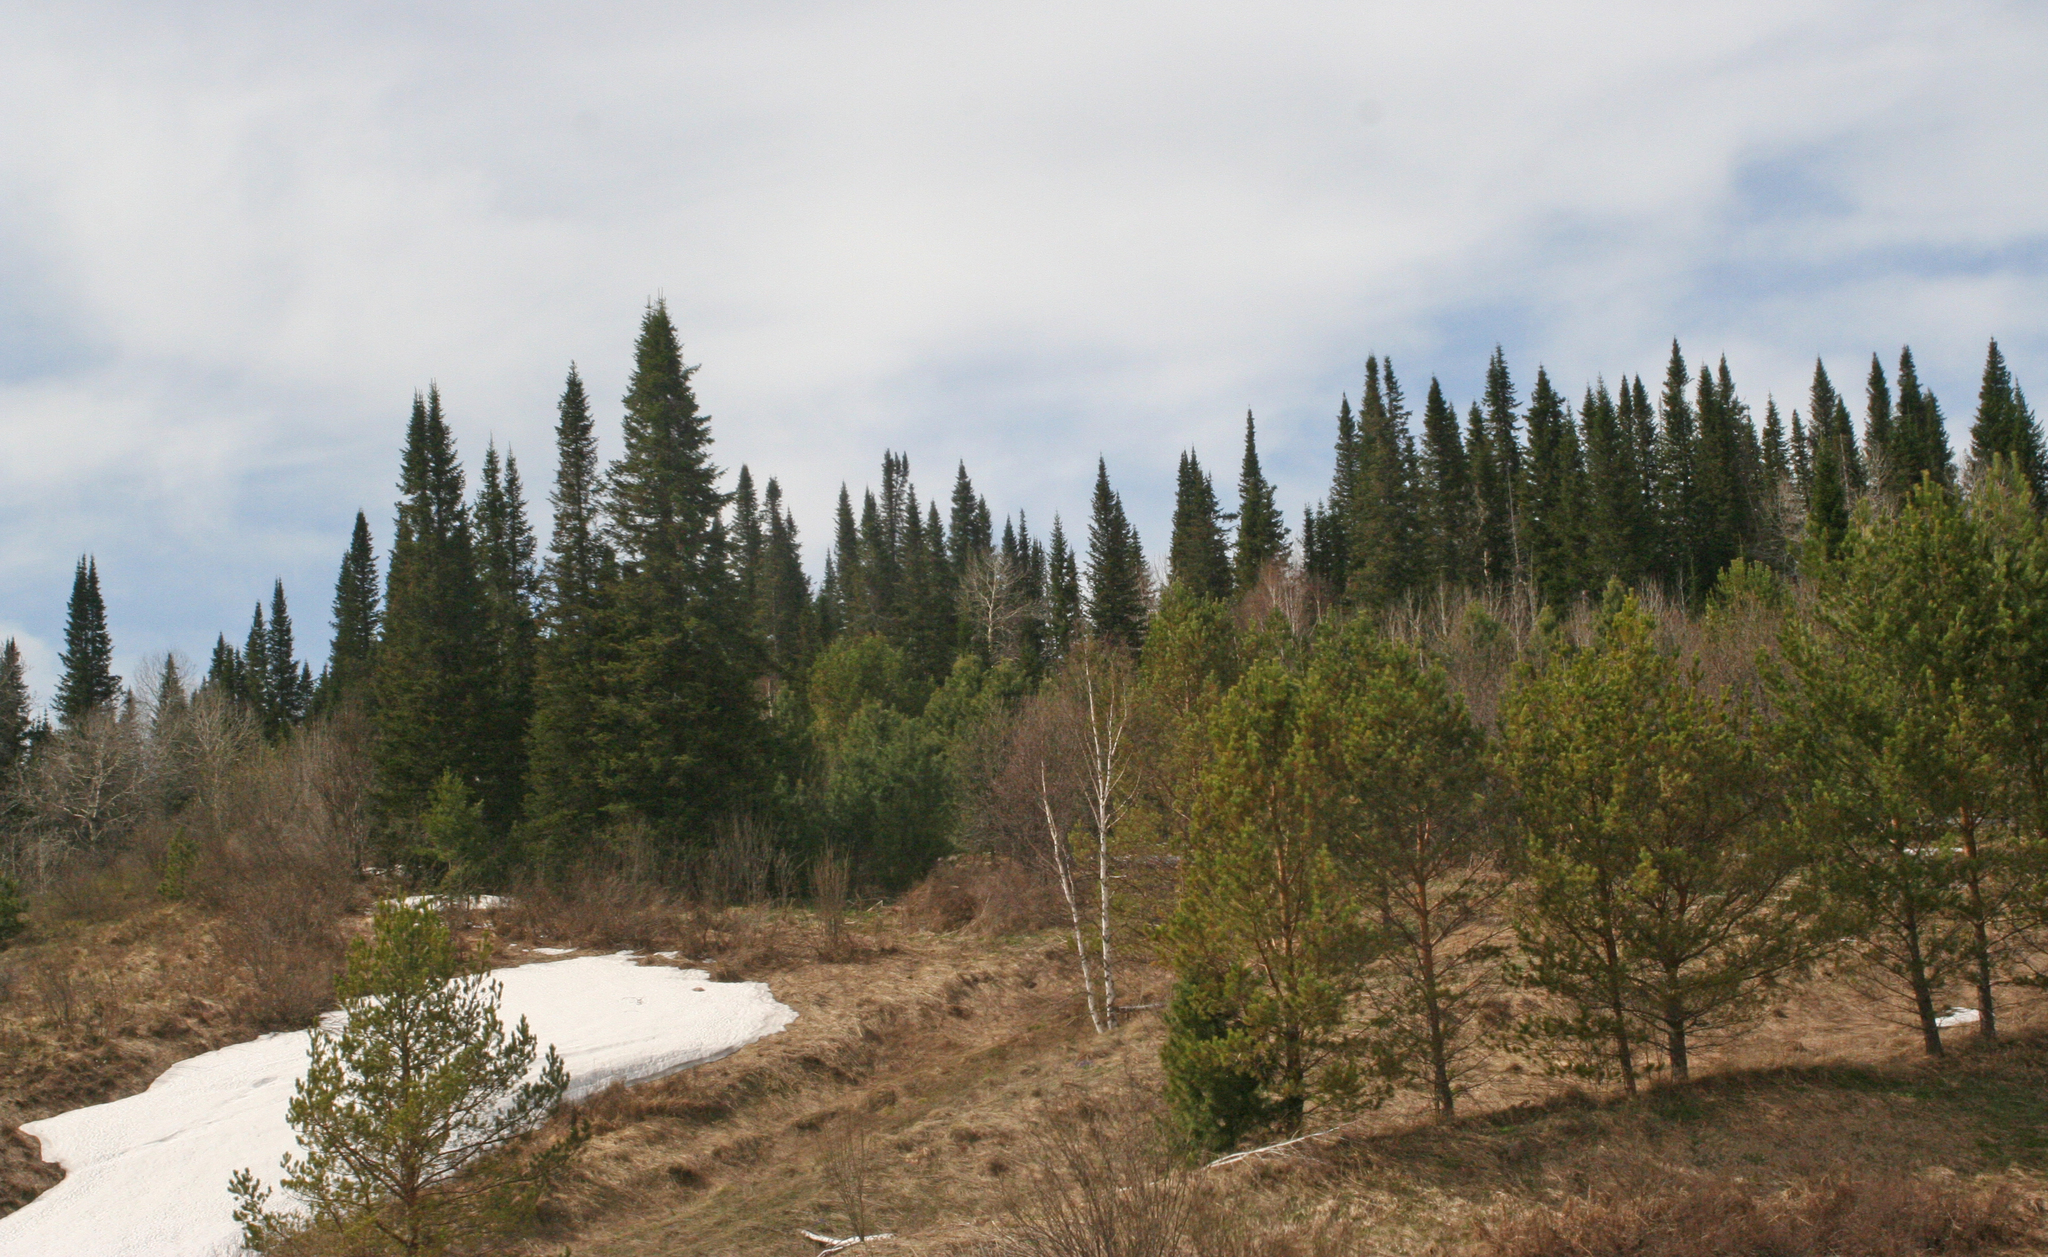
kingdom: Plantae
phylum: Tracheophyta
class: Pinopsida
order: Pinales
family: Pinaceae
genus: Abies
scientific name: Abies sibirica
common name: Siberian fir
